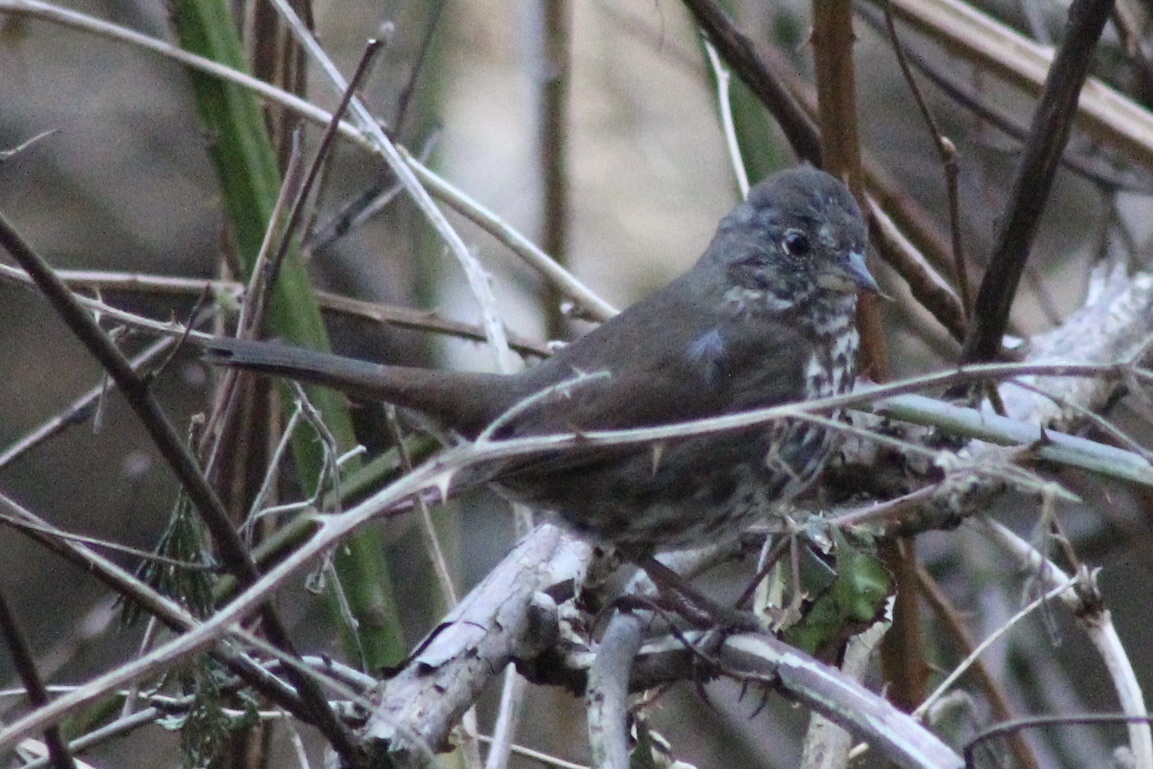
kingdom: Animalia
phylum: Chordata
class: Aves
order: Passeriformes
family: Passerellidae
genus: Passerella
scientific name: Passerella iliaca
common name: Fox sparrow
